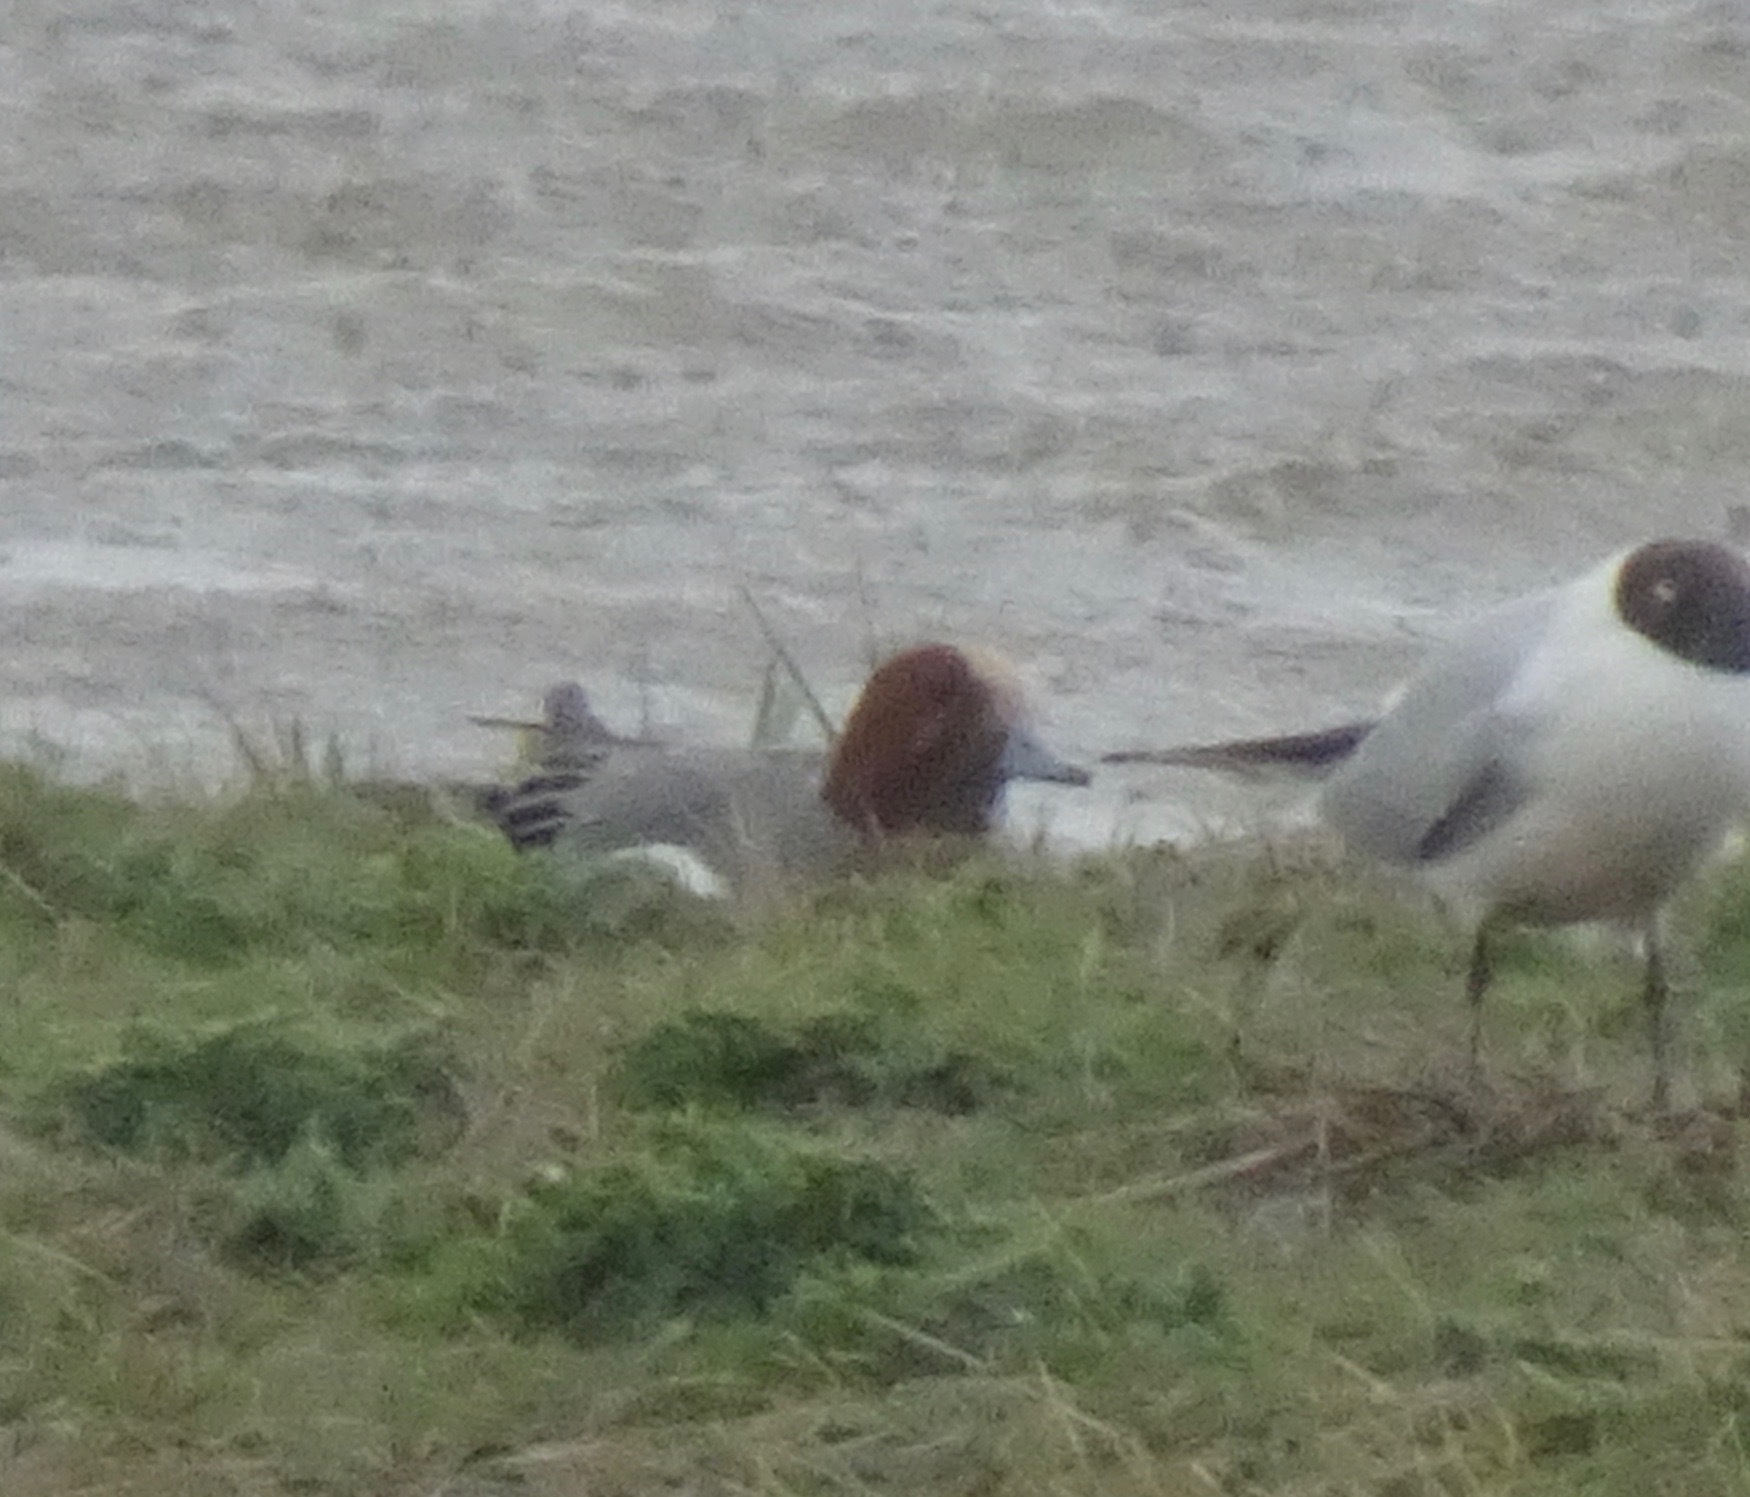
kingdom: Animalia
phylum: Chordata
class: Aves
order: Anseriformes
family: Anatidae
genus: Mareca
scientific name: Mareca penelope
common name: Eurasian wigeon
